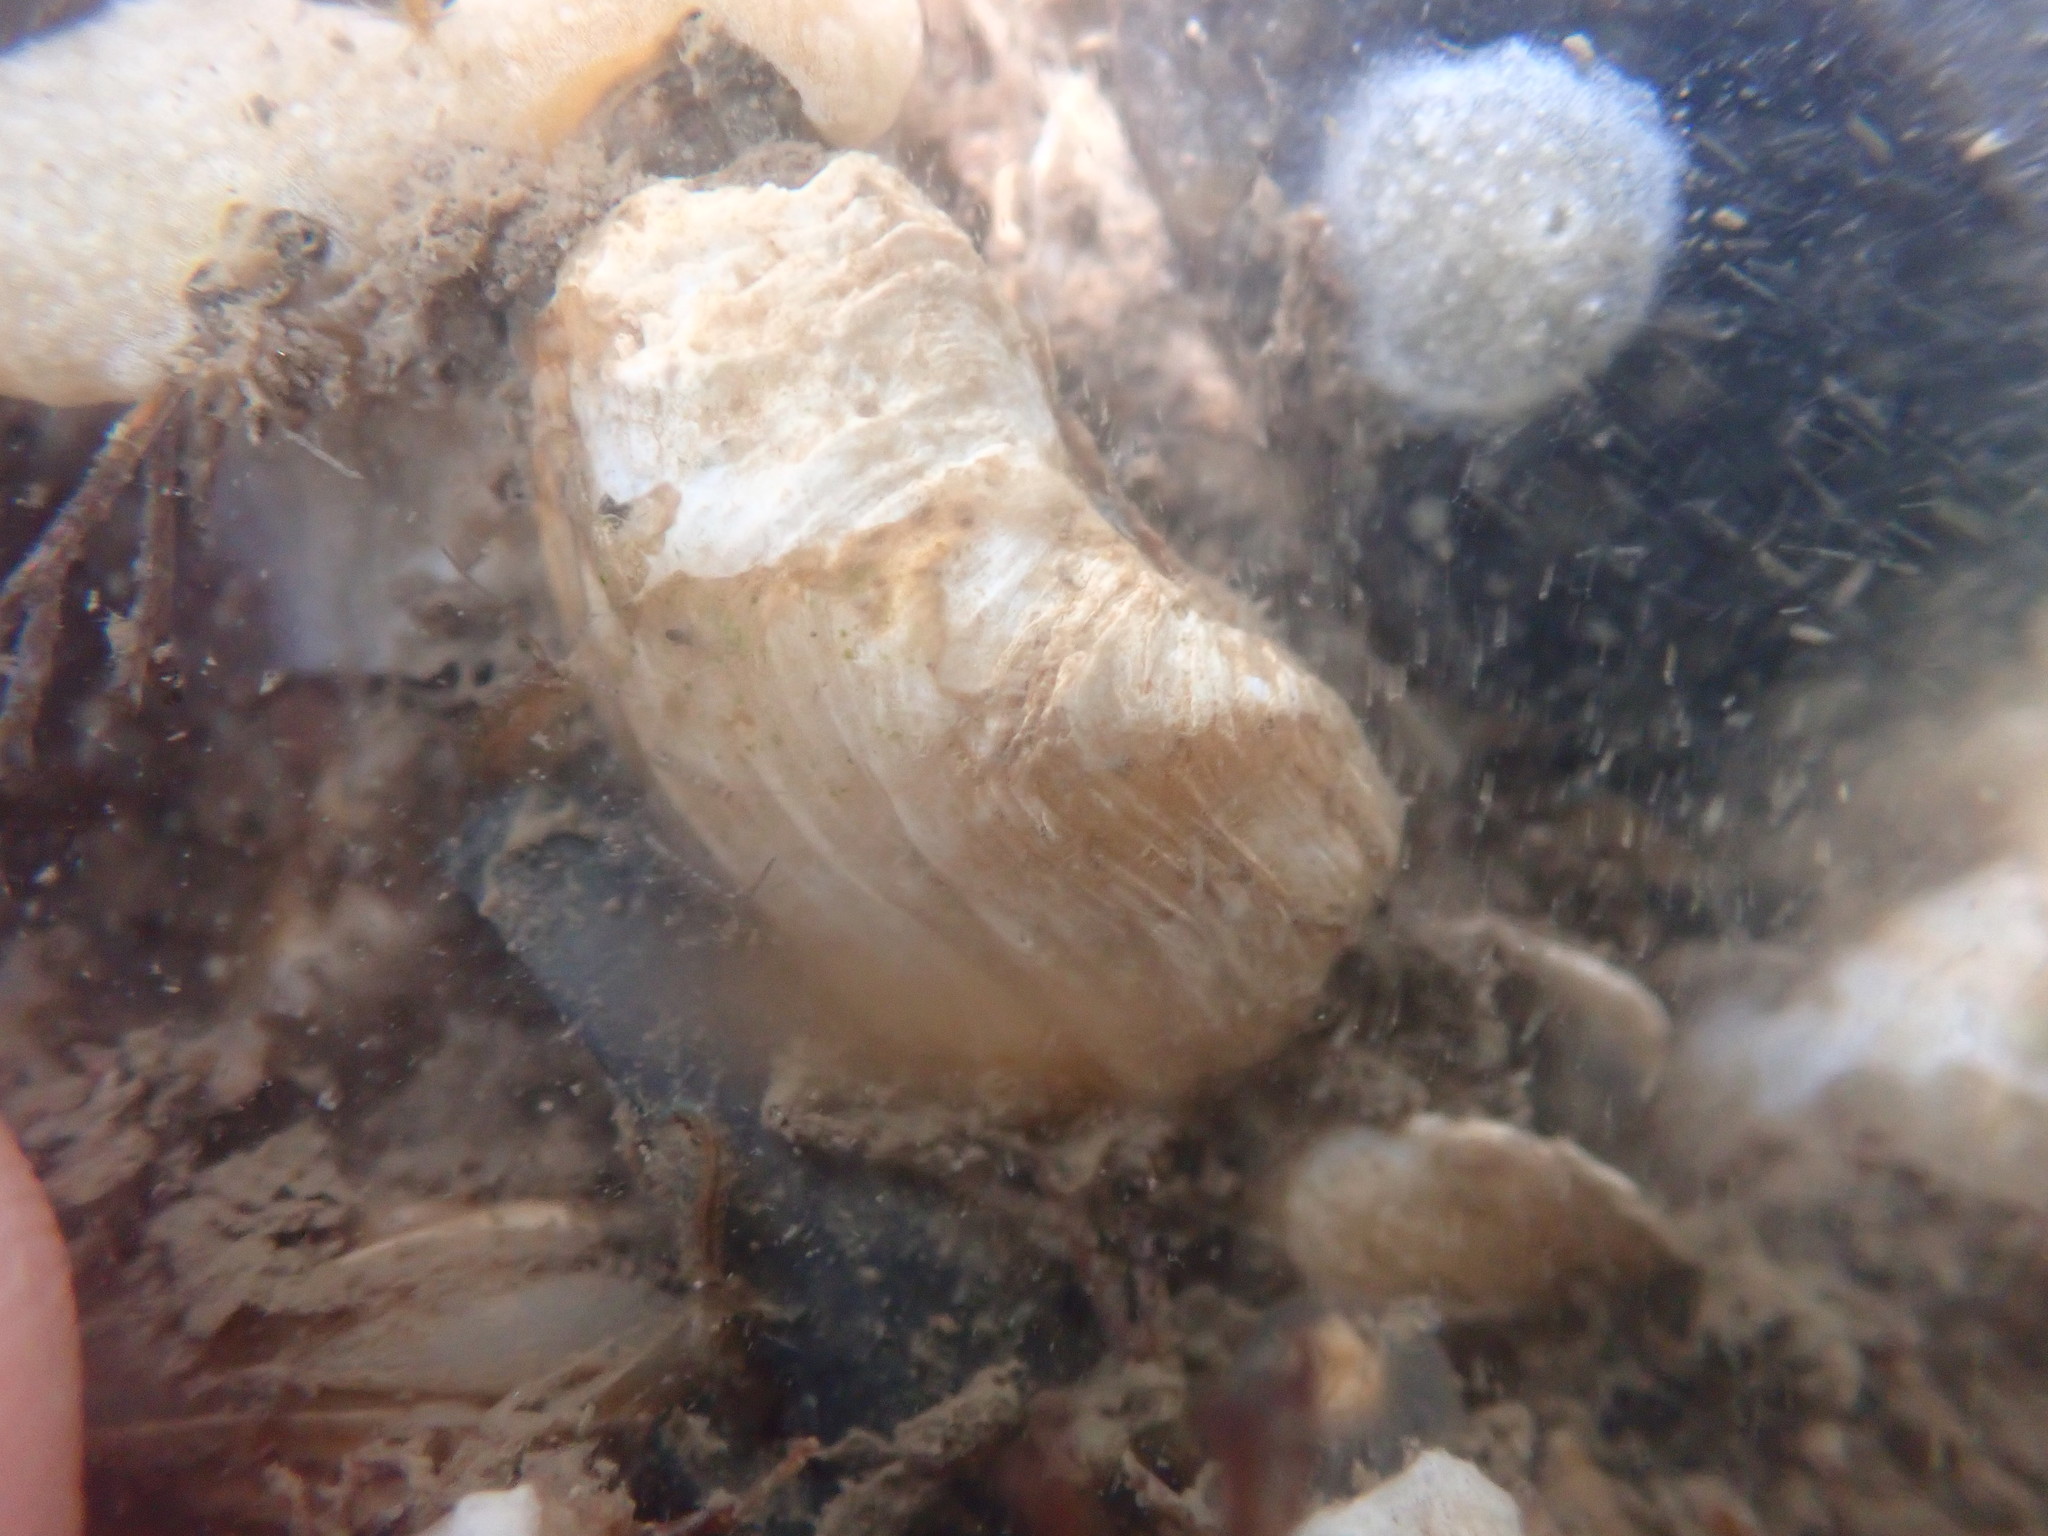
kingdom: Animalia
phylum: Mollusca
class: Bivalvia
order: Adapedonta
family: Hiatellidae
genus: Hiatella
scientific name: Hiatella arctica
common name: Arctic hiatella
